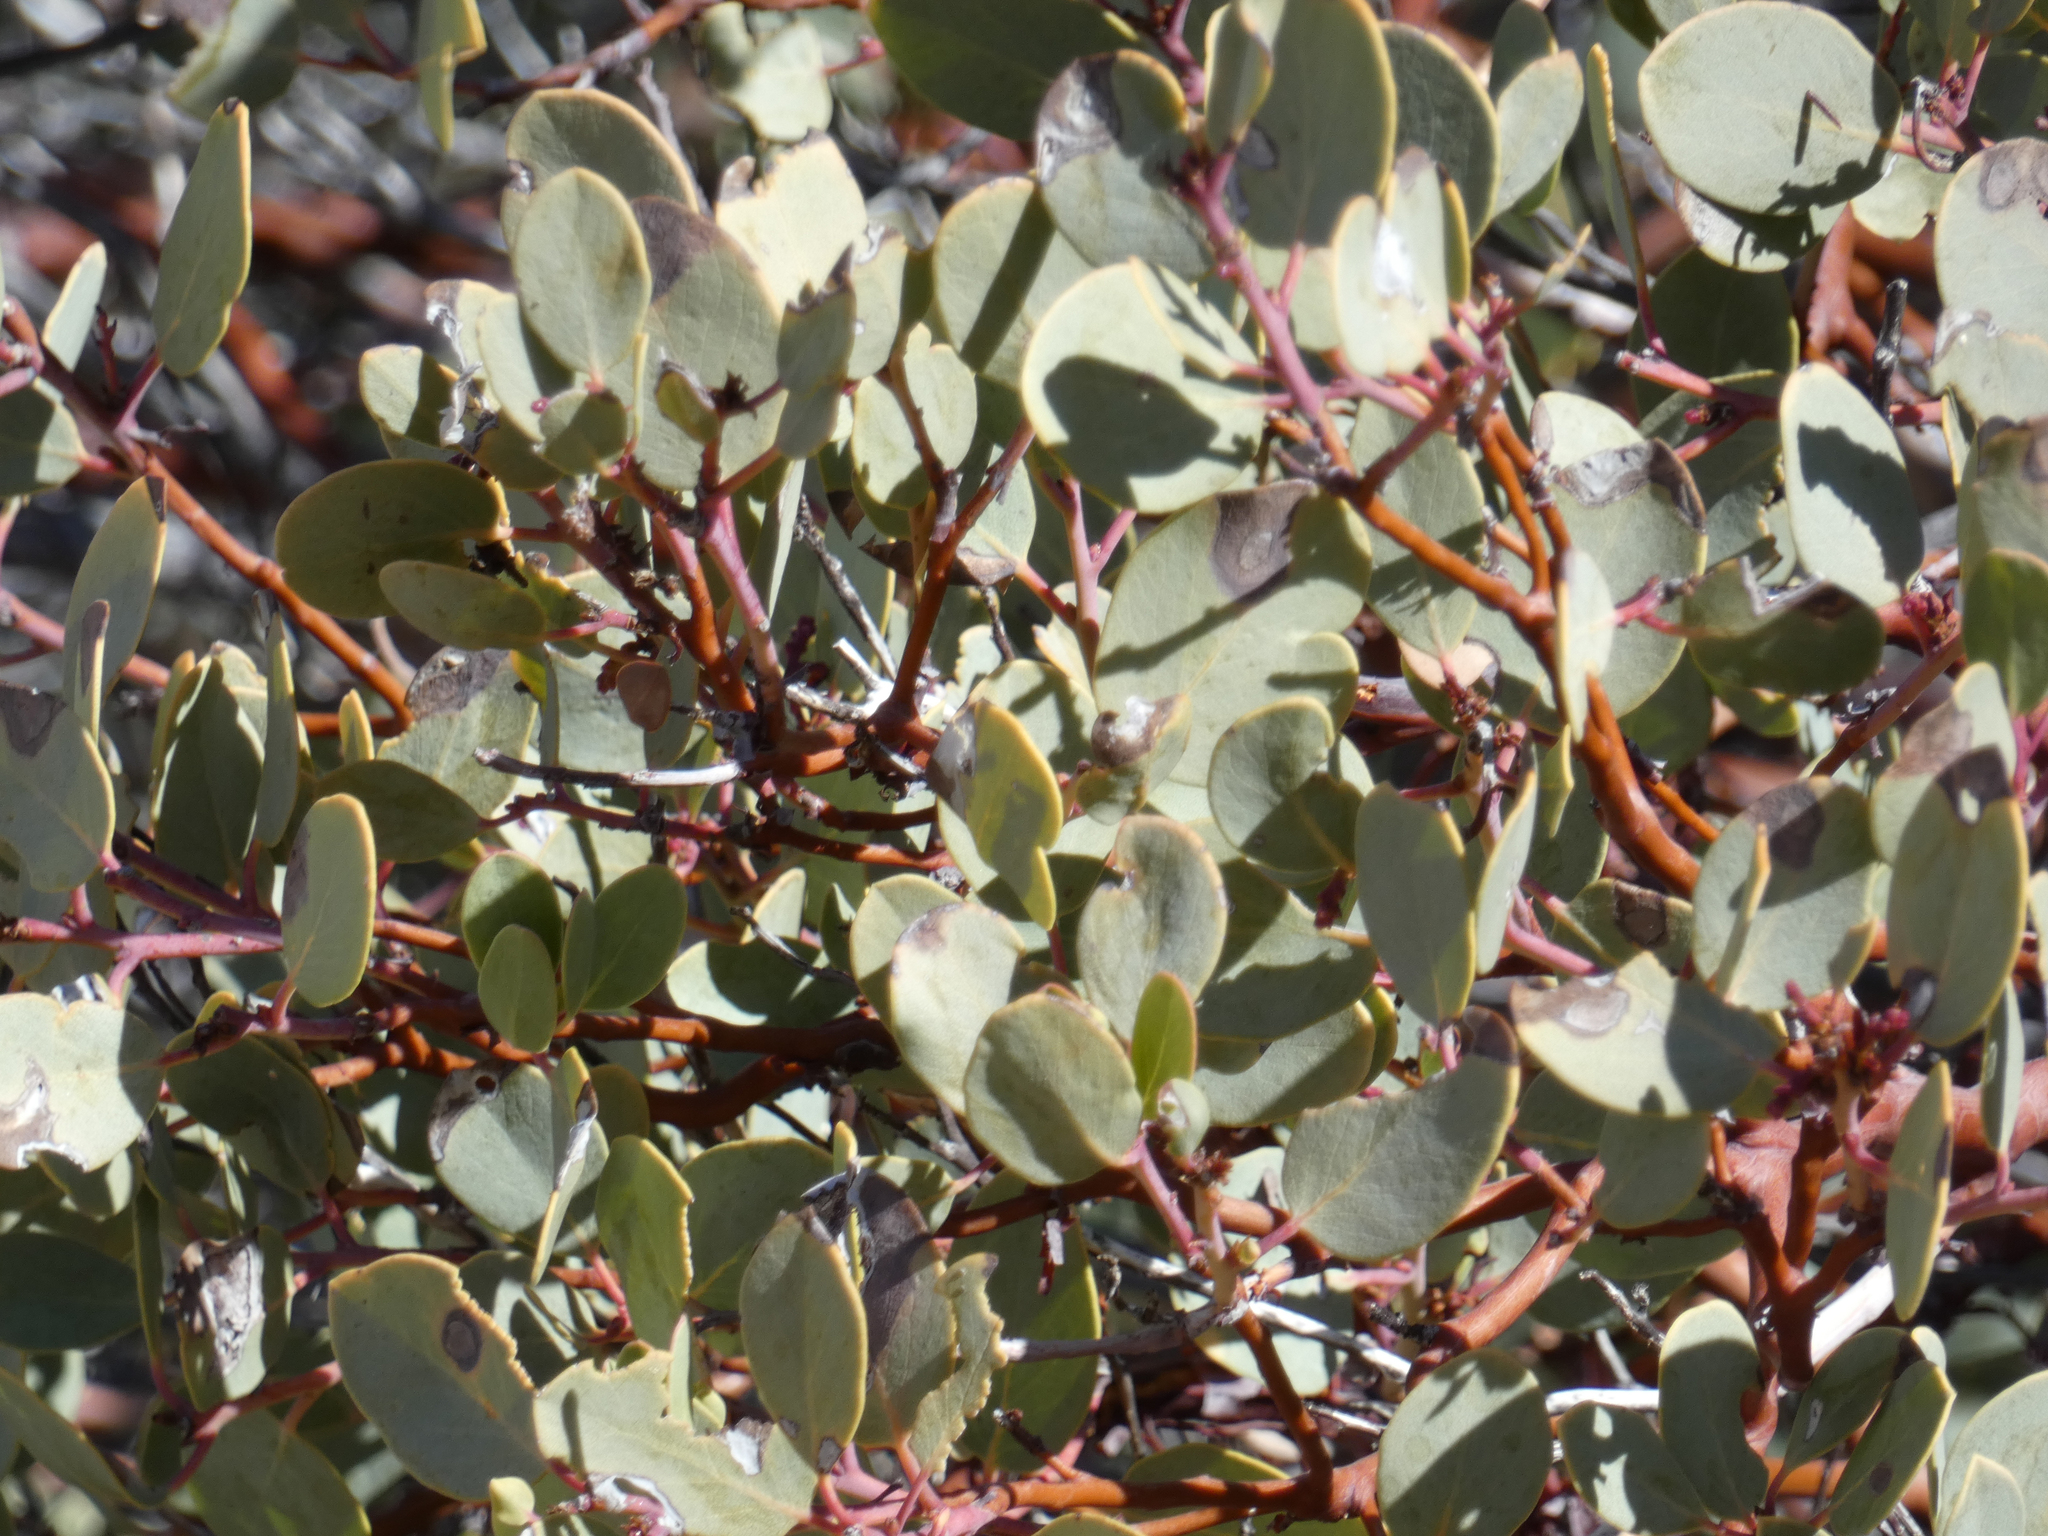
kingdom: Plantae
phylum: Tracheophyta
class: Magnoliopsida
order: Ericales
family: Ericaceae
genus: Arctostaphylos
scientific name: Arctostaphylos glauca
